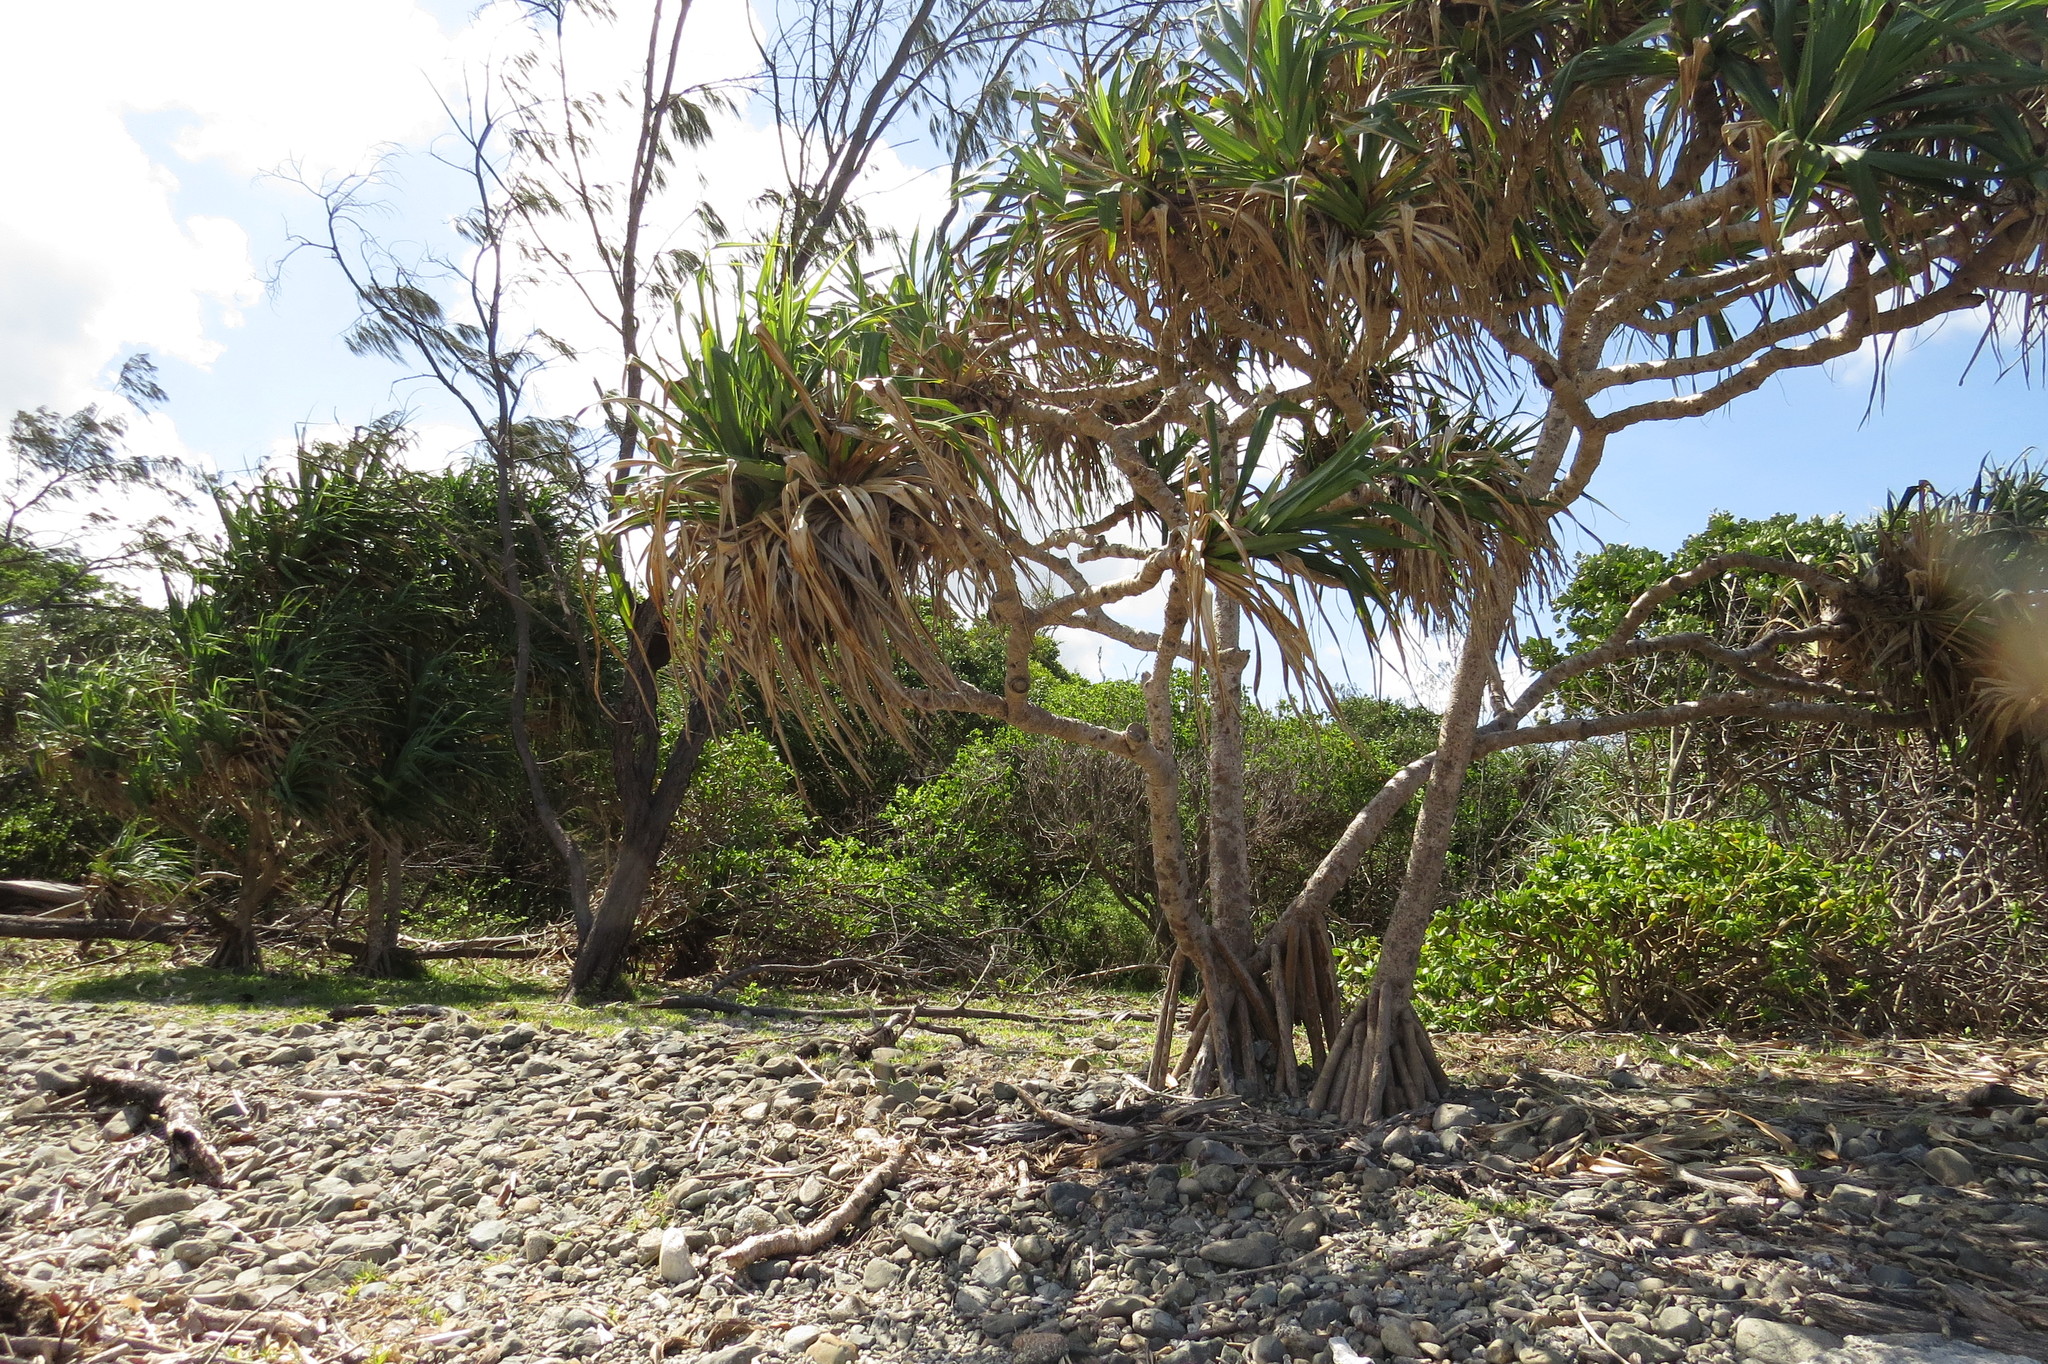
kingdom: Plantae
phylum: Tracheophyta
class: Liliopsida
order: Pandanales
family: Pandanaceae
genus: Pandanus
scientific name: Pandanus tectorius
